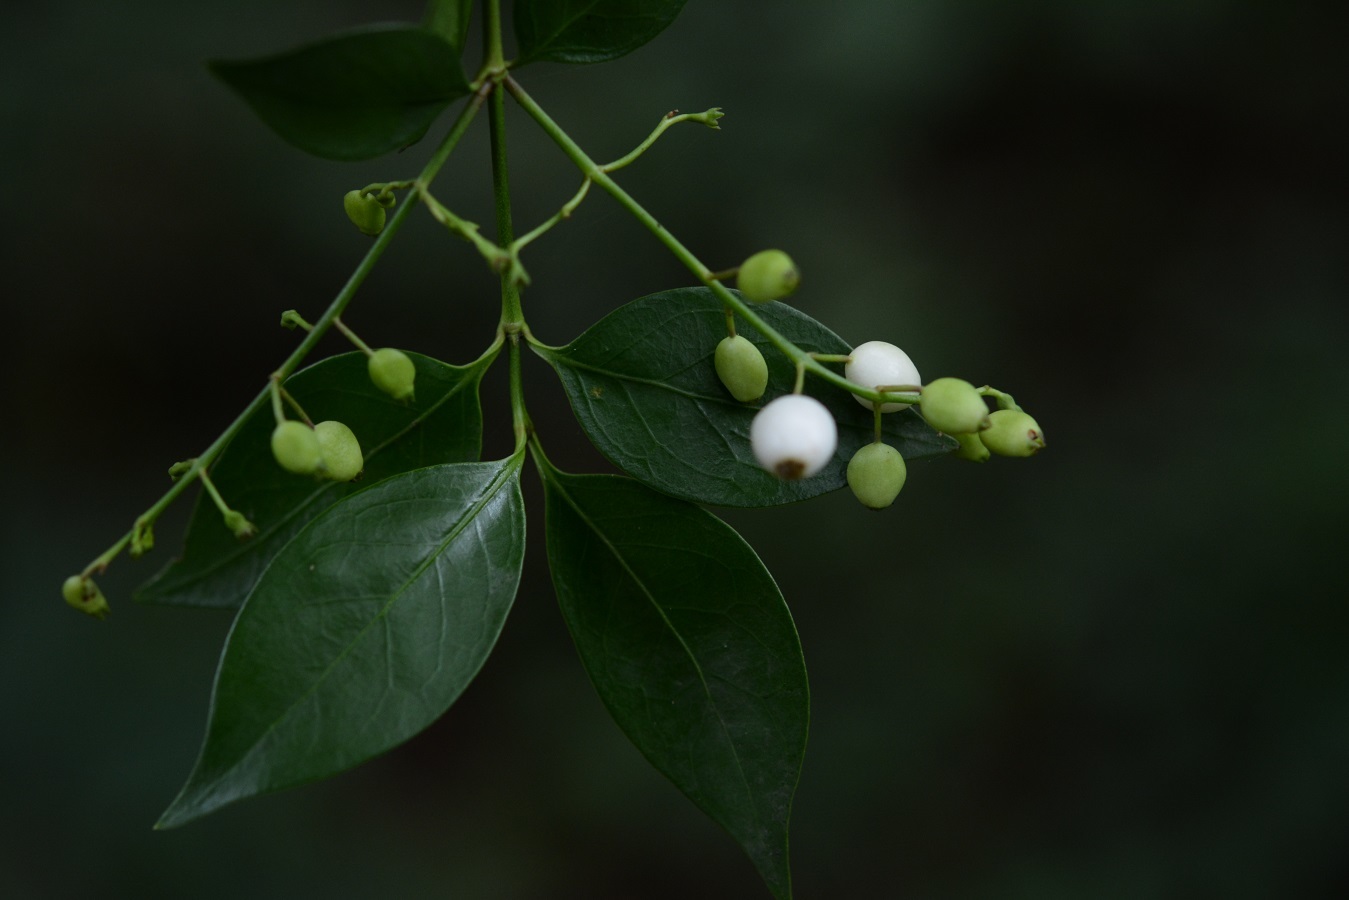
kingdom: Plantae
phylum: Tracheophyta
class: Magnoliopsida
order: Gentianales
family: Rubiaceae
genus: Chiococca
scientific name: Chiococca alba
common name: Snowberry
